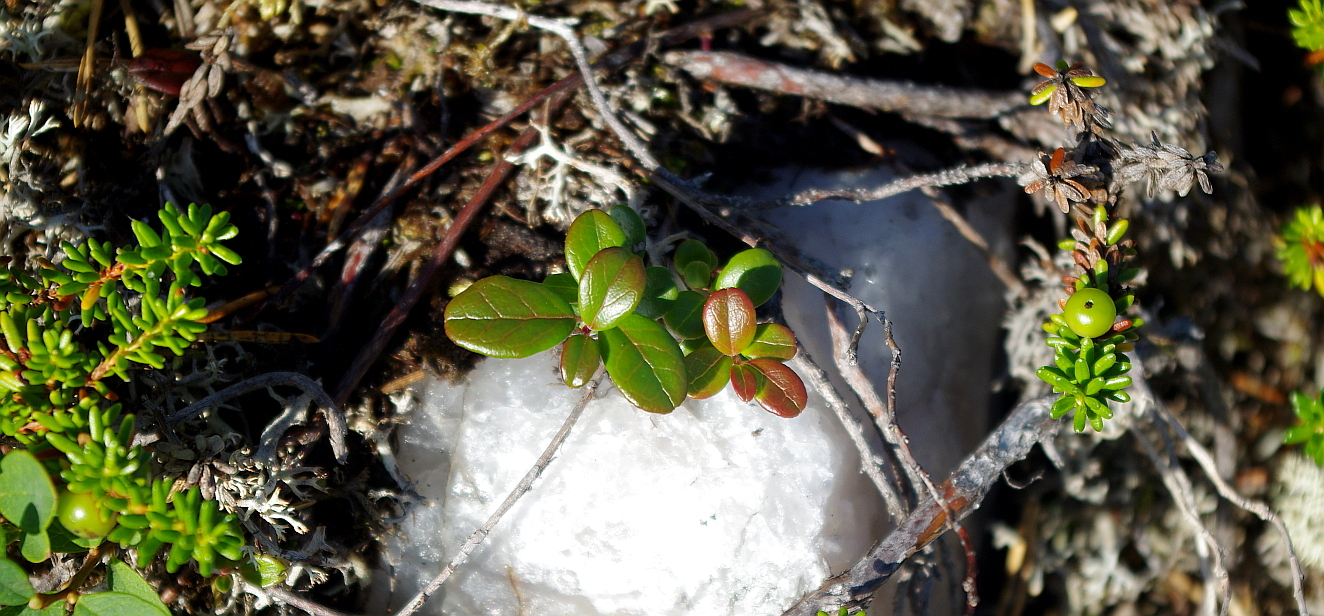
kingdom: Plantae
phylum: Tracheophyta
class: Magnoliopsida
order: Ericales
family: Ericaceae
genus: Vaccinium
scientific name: Vaccinium vitis-idaea
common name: Cowberry
